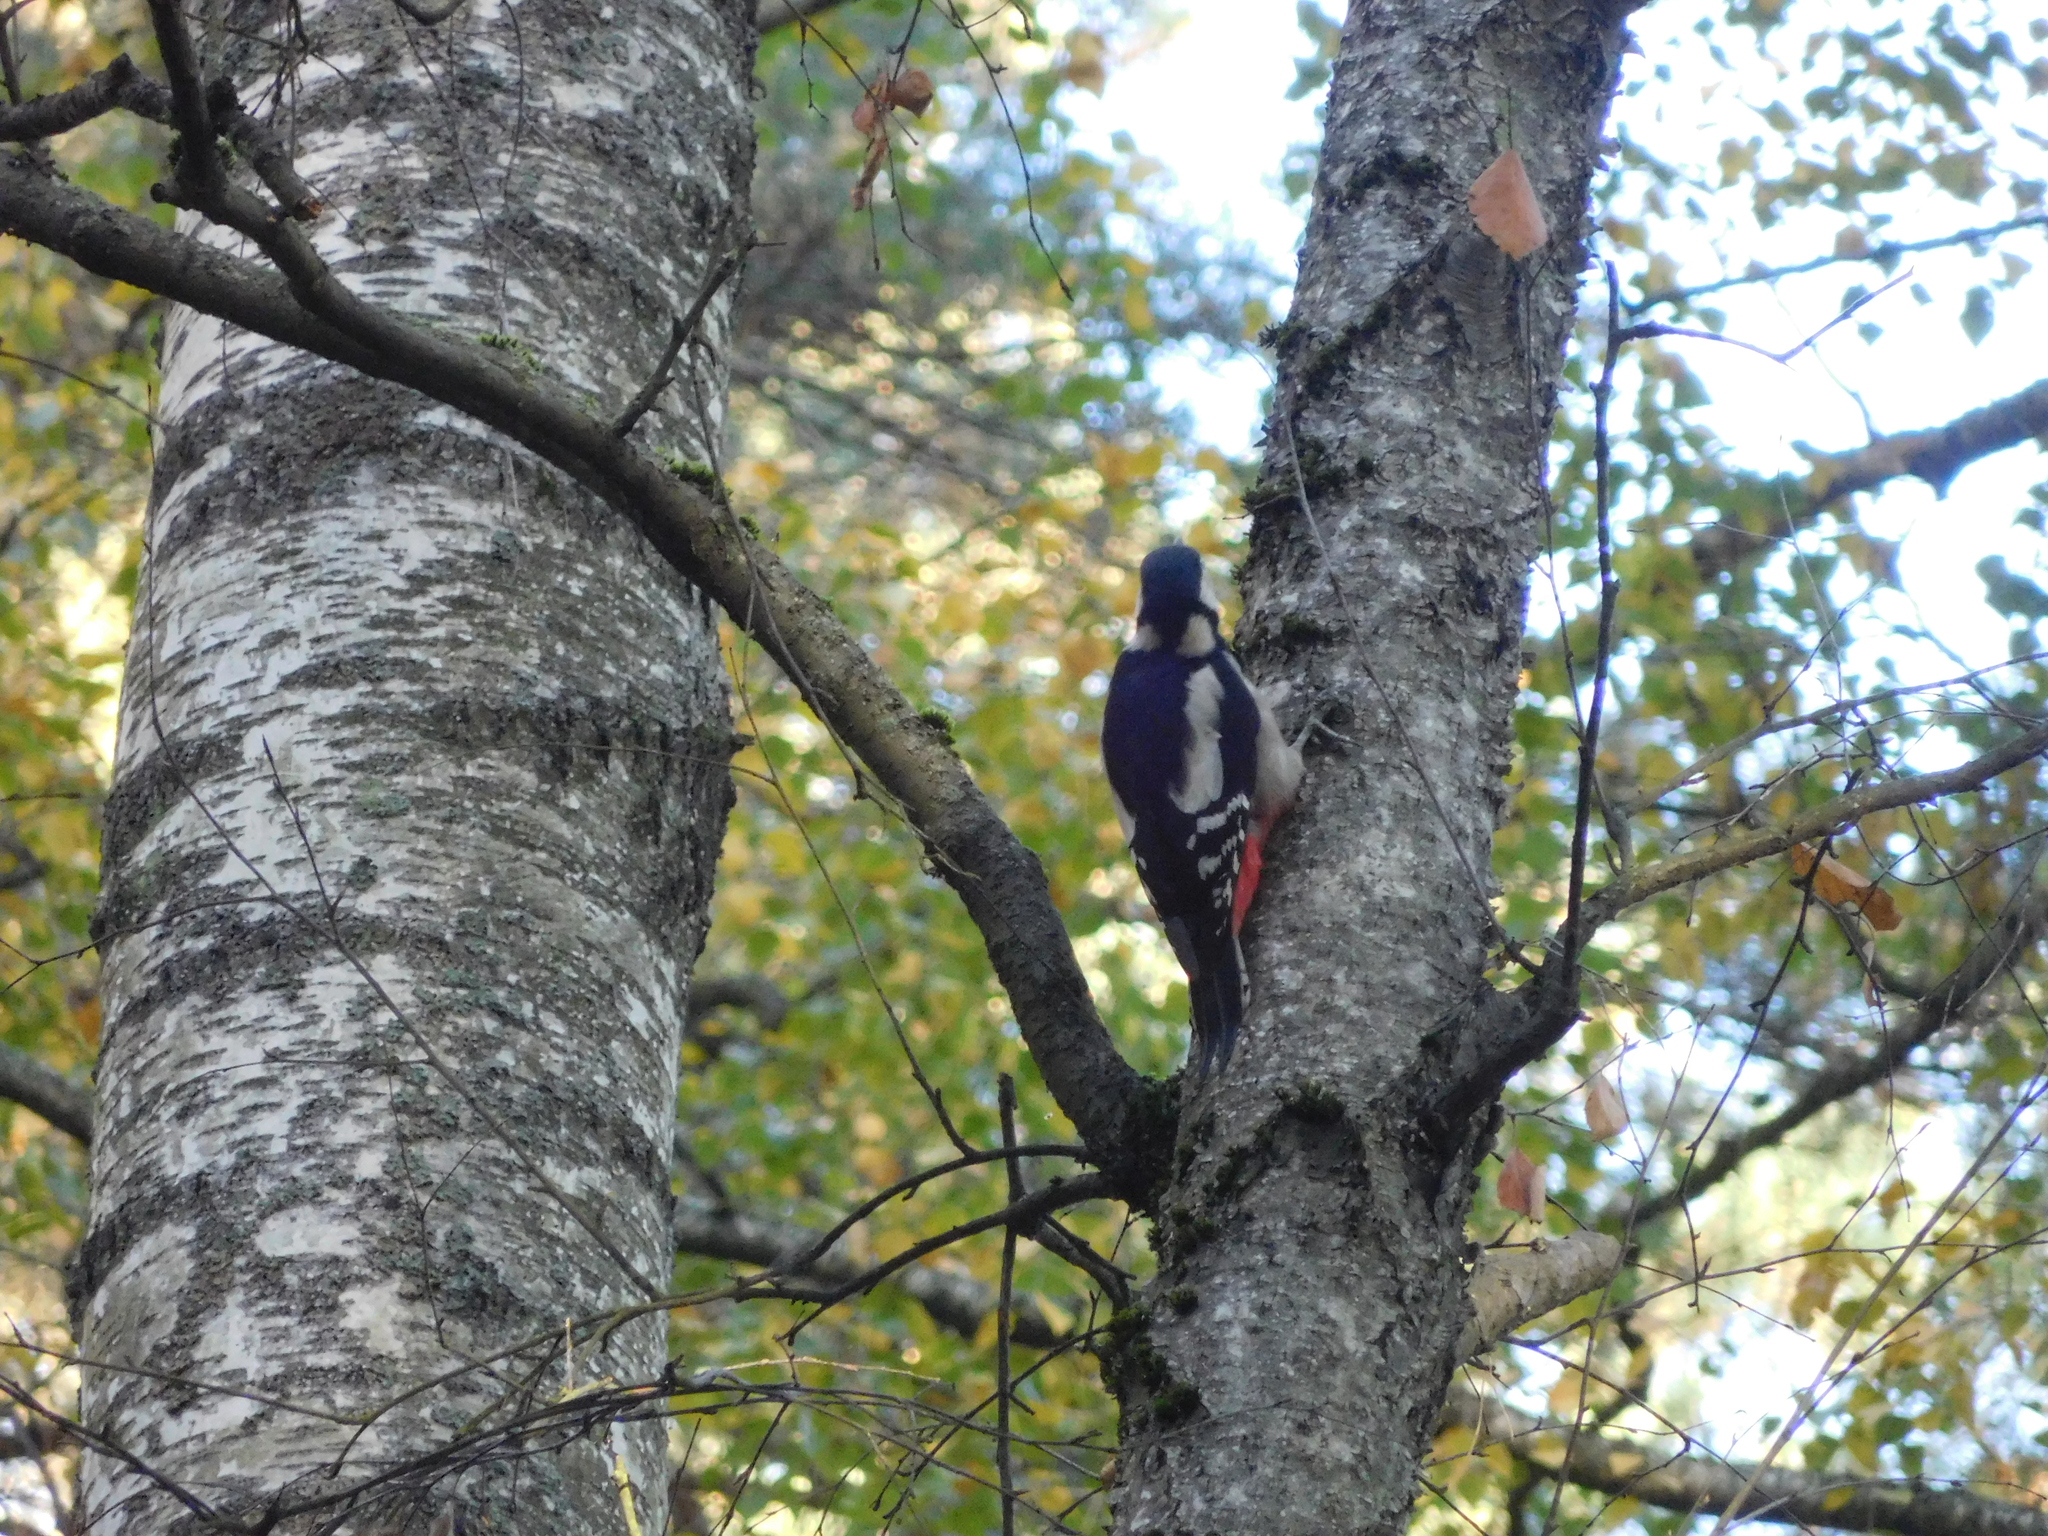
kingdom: Animalia
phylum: Chordata
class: Aves
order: Piciformes
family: Picidae
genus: Dendrocopos
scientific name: Dendrocopos major
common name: Great spotted woodpecker
